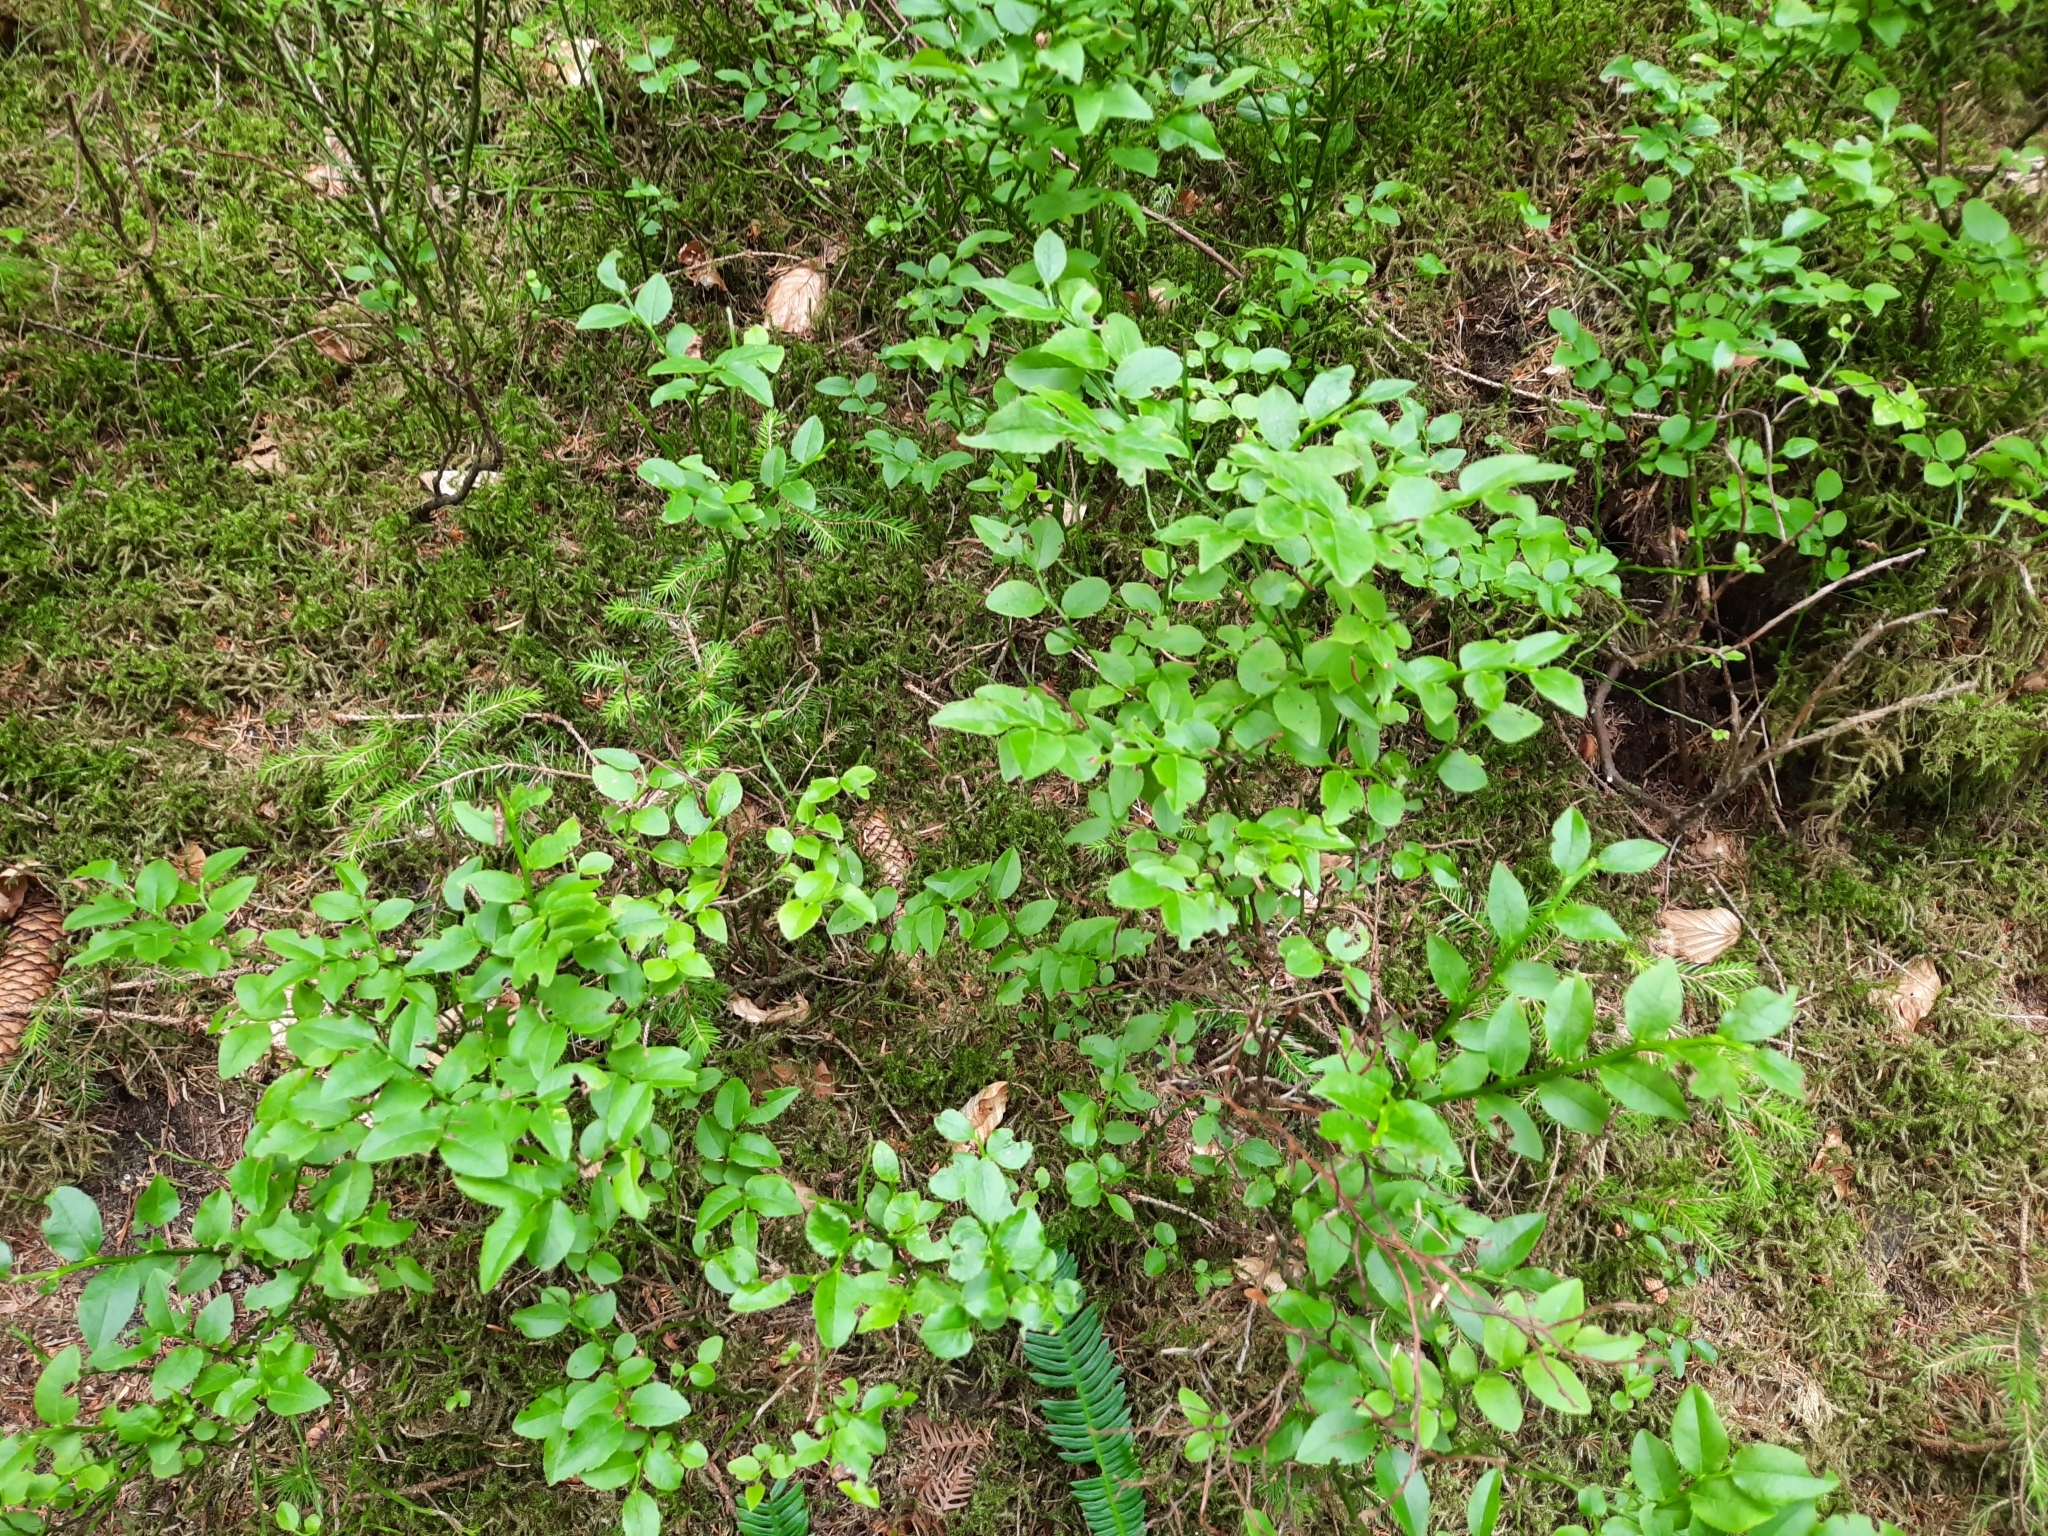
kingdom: Plantae
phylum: Tracheophyta
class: Magnoliopsida
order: Ericales
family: Ericaceae
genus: Vaccinium
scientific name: Vaccinium myrtillus
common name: Bilberry
